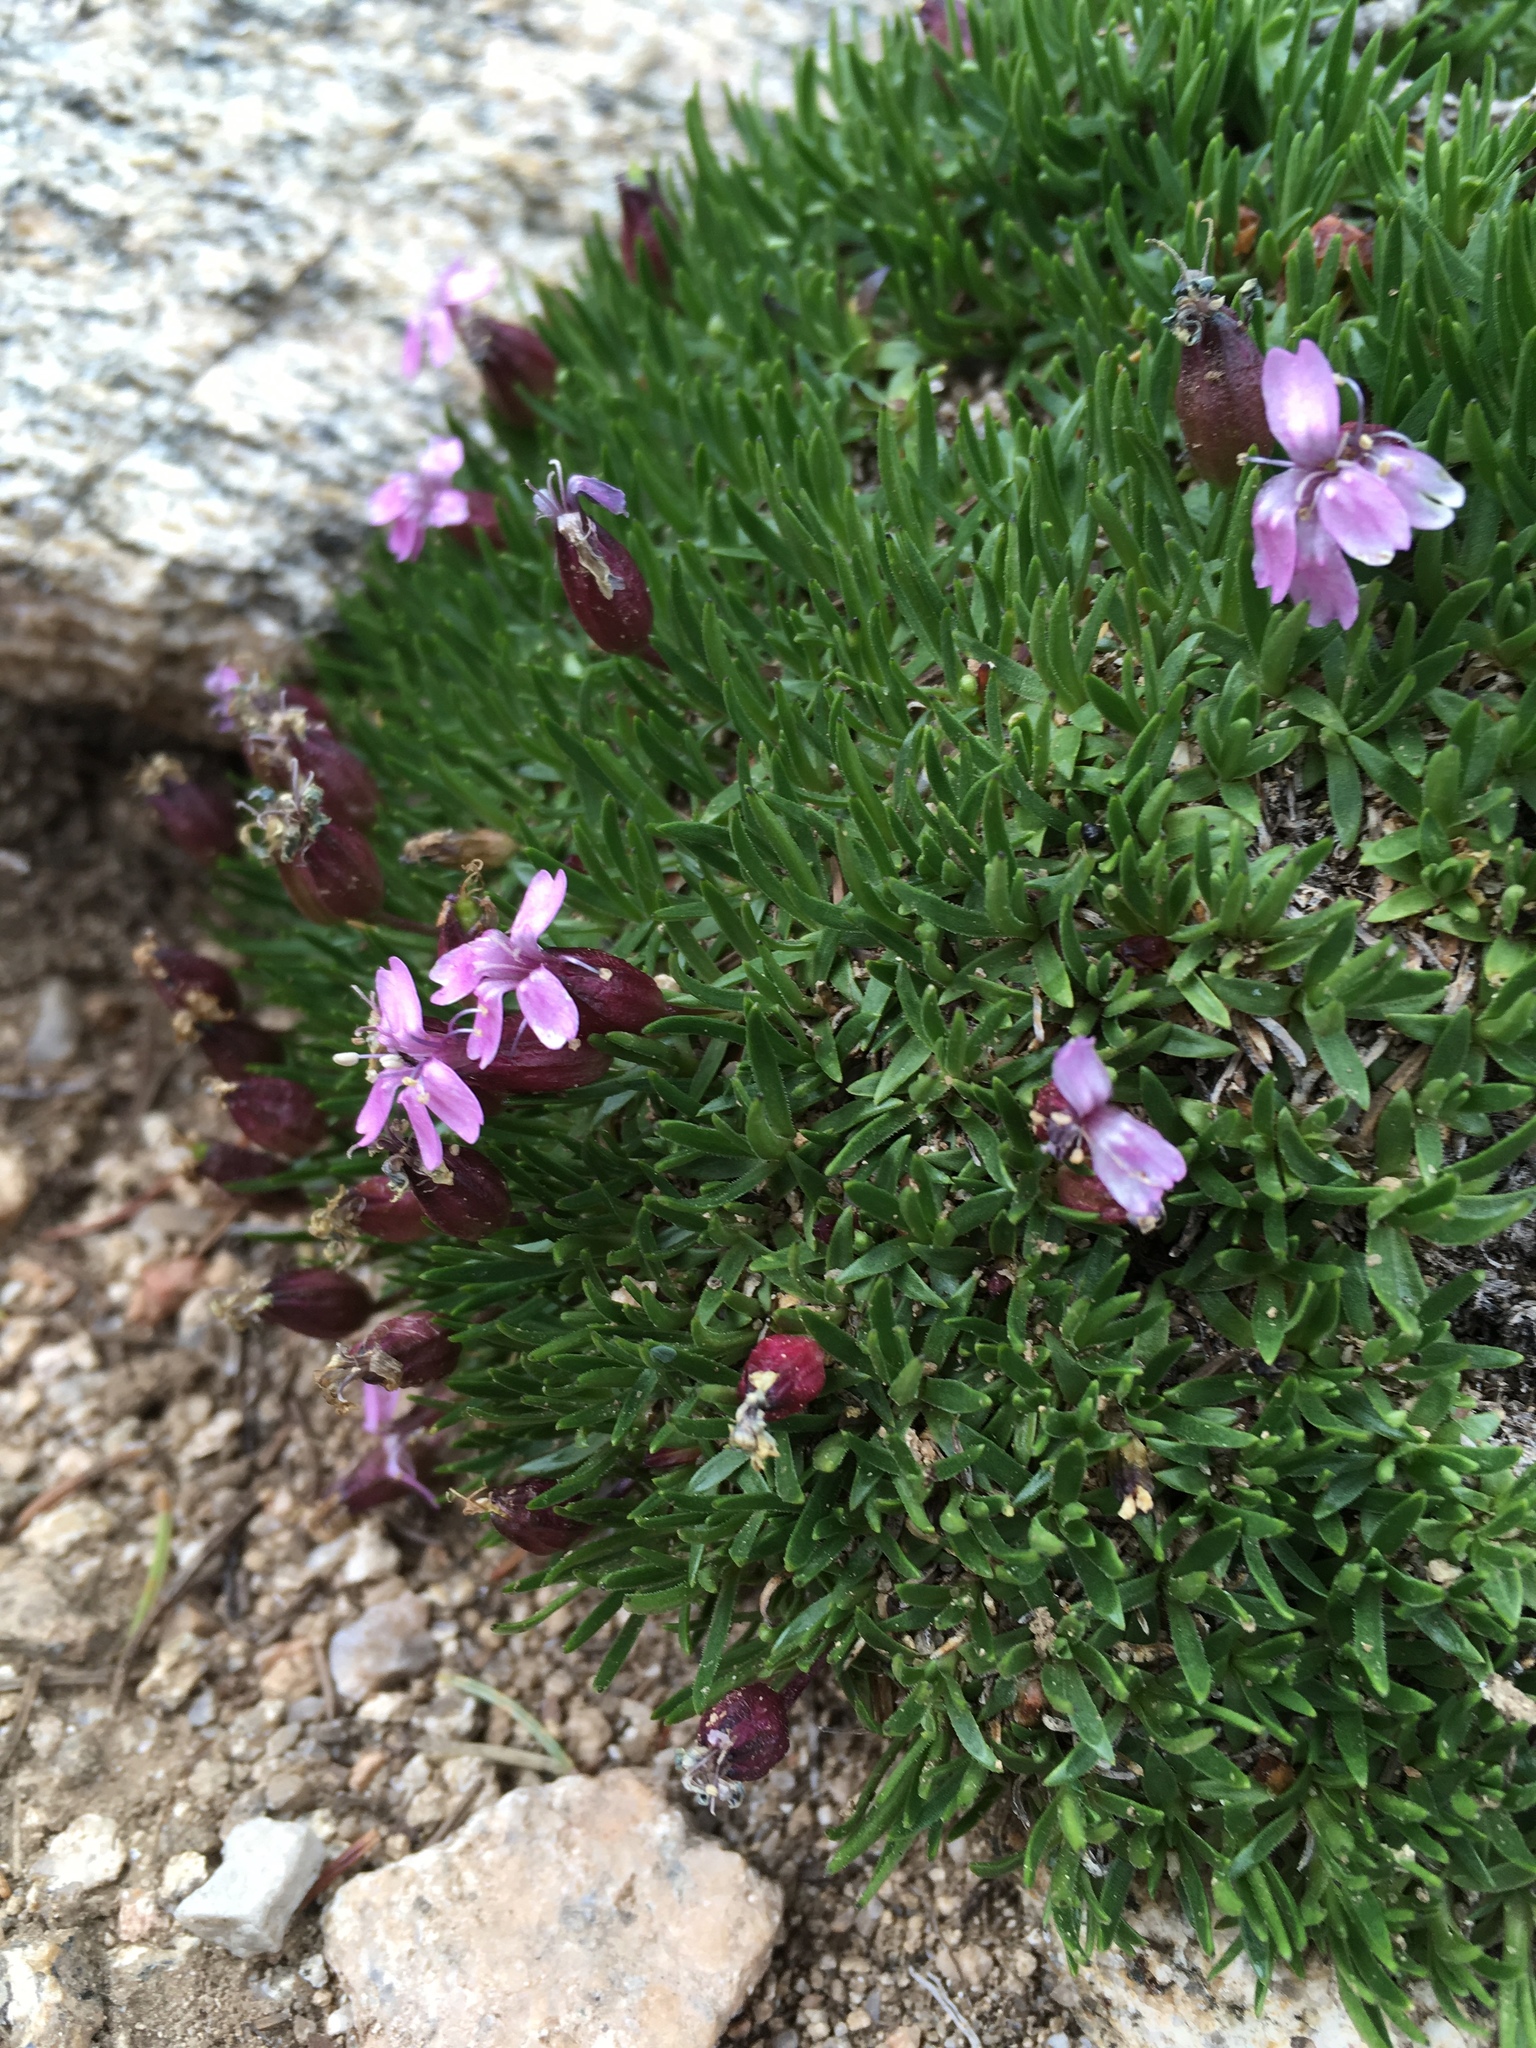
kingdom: Plantae
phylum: Tracheophyta
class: Magnoliopsida
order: Caryophyllales
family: Caryophyllaceae
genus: Silene
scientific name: Silene acaulis
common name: Moss campion
